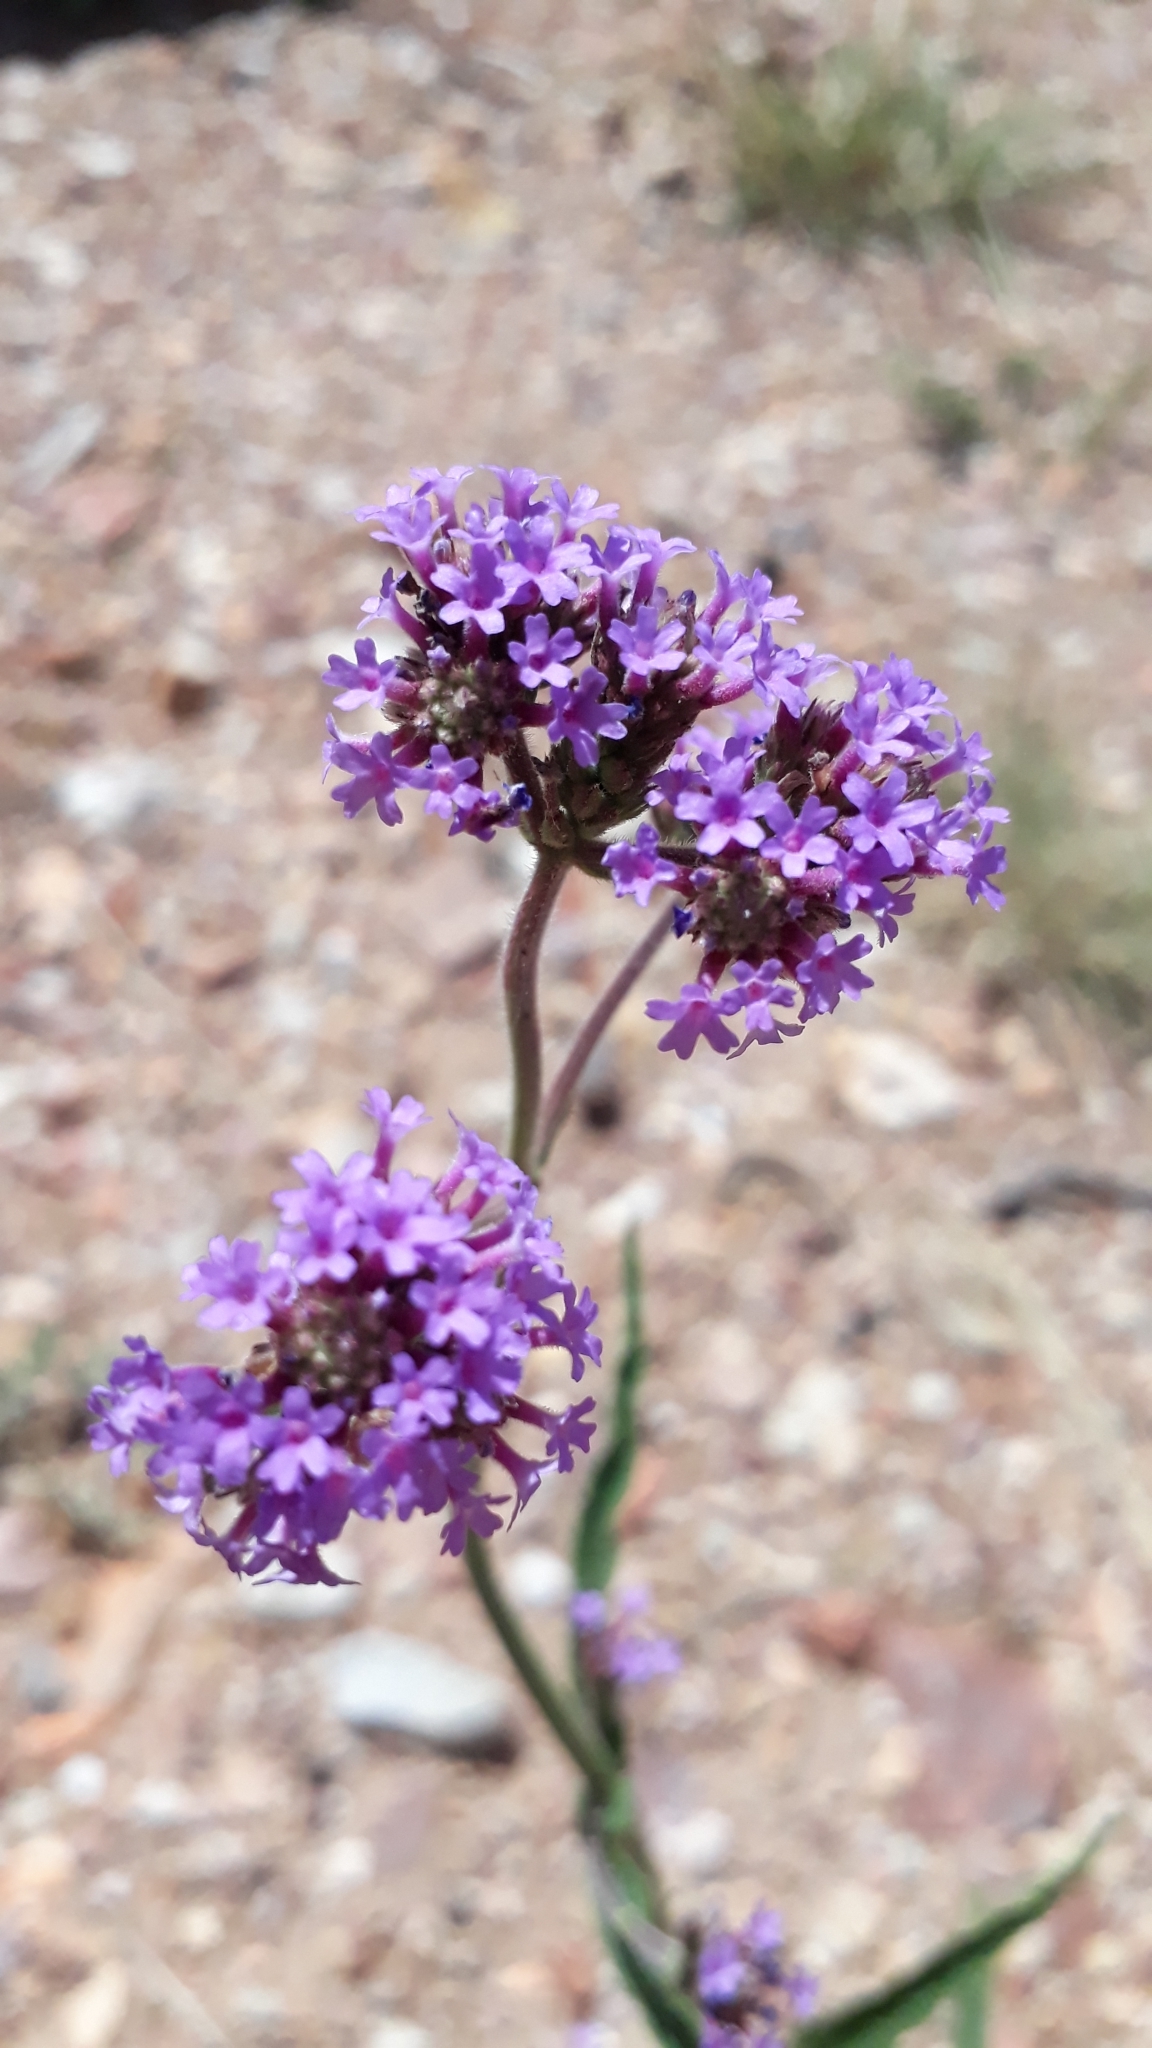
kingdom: Plantae
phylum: Tracheophyta
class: Magnoliopsida
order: Lamiales
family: Verbenaceae
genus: Verbena
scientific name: Verbena bonariensis
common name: Purpletop vervain
